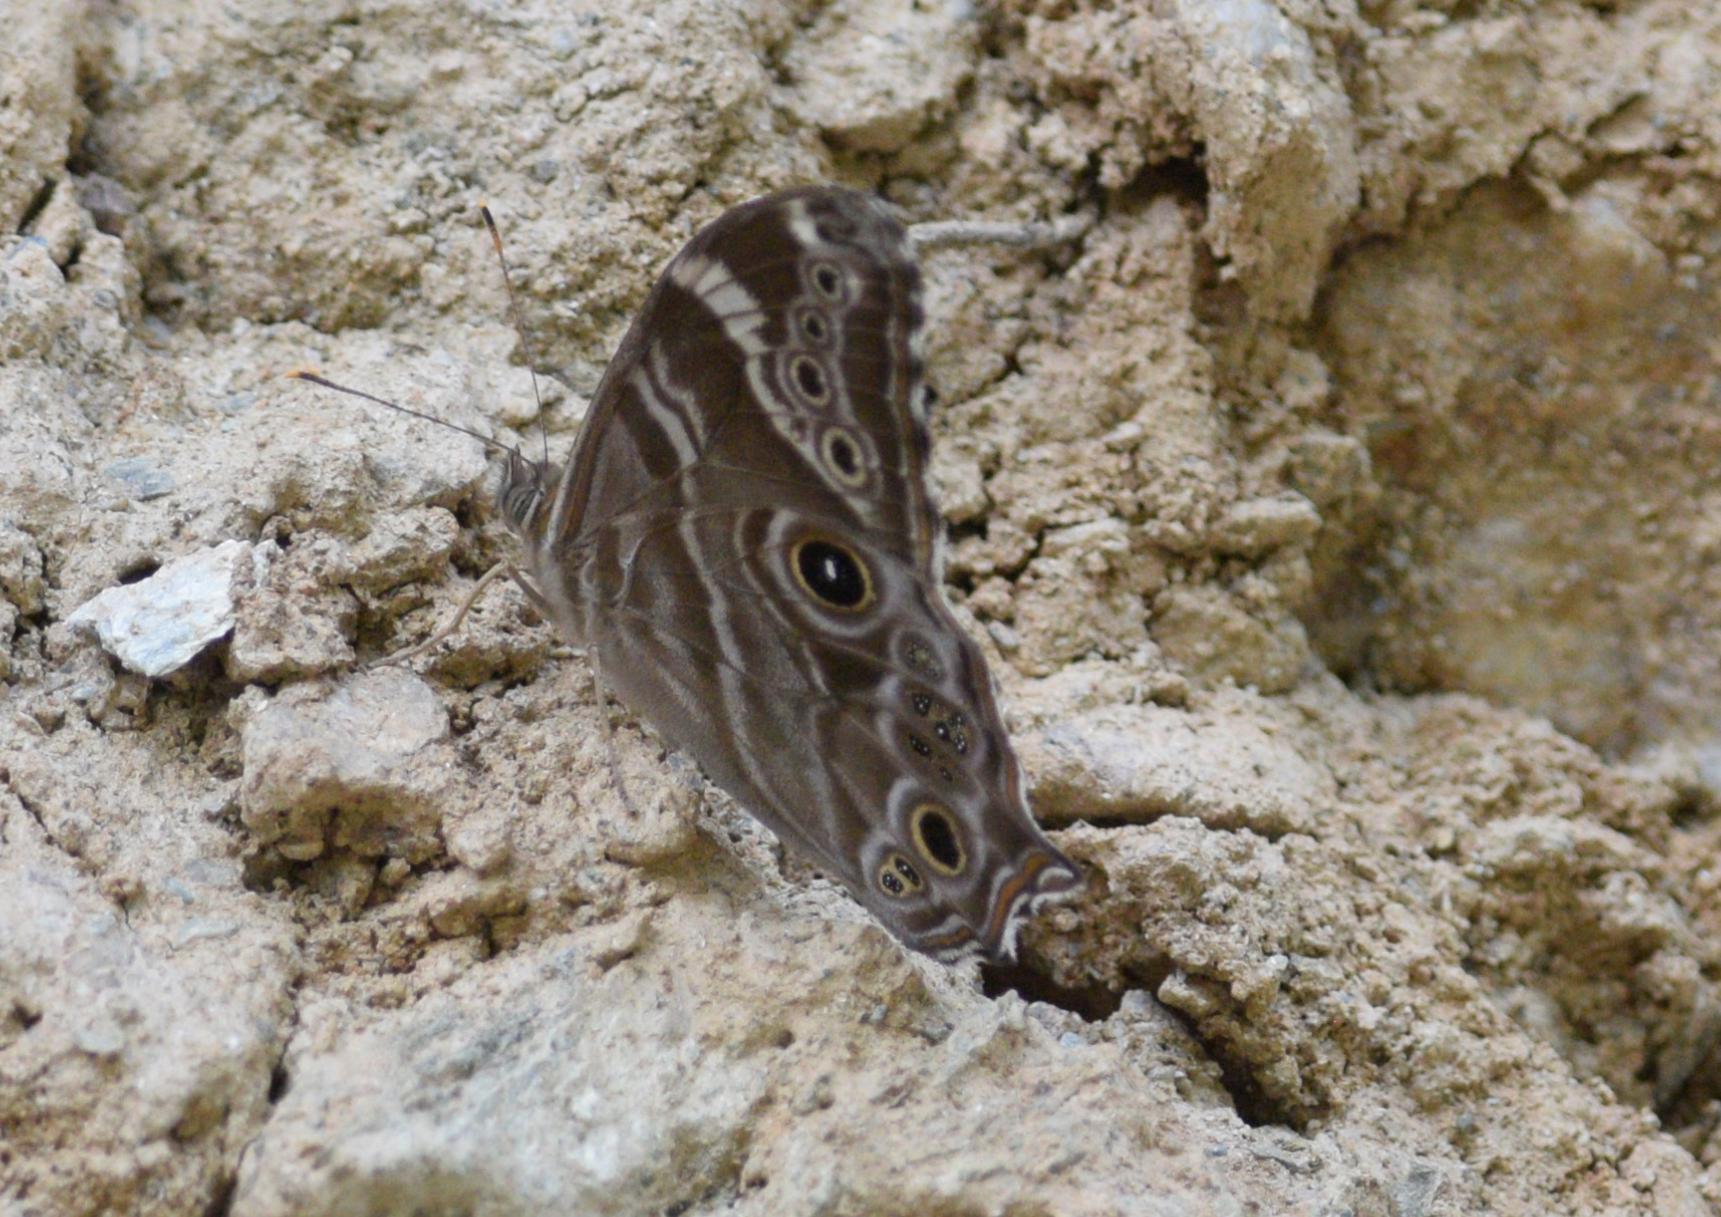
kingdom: Animalia
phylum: Arthropoda
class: Insecta
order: Lepidoptera
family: Nymphalidae
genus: Lethe
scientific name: Lethe rohria
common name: Common treebrown
